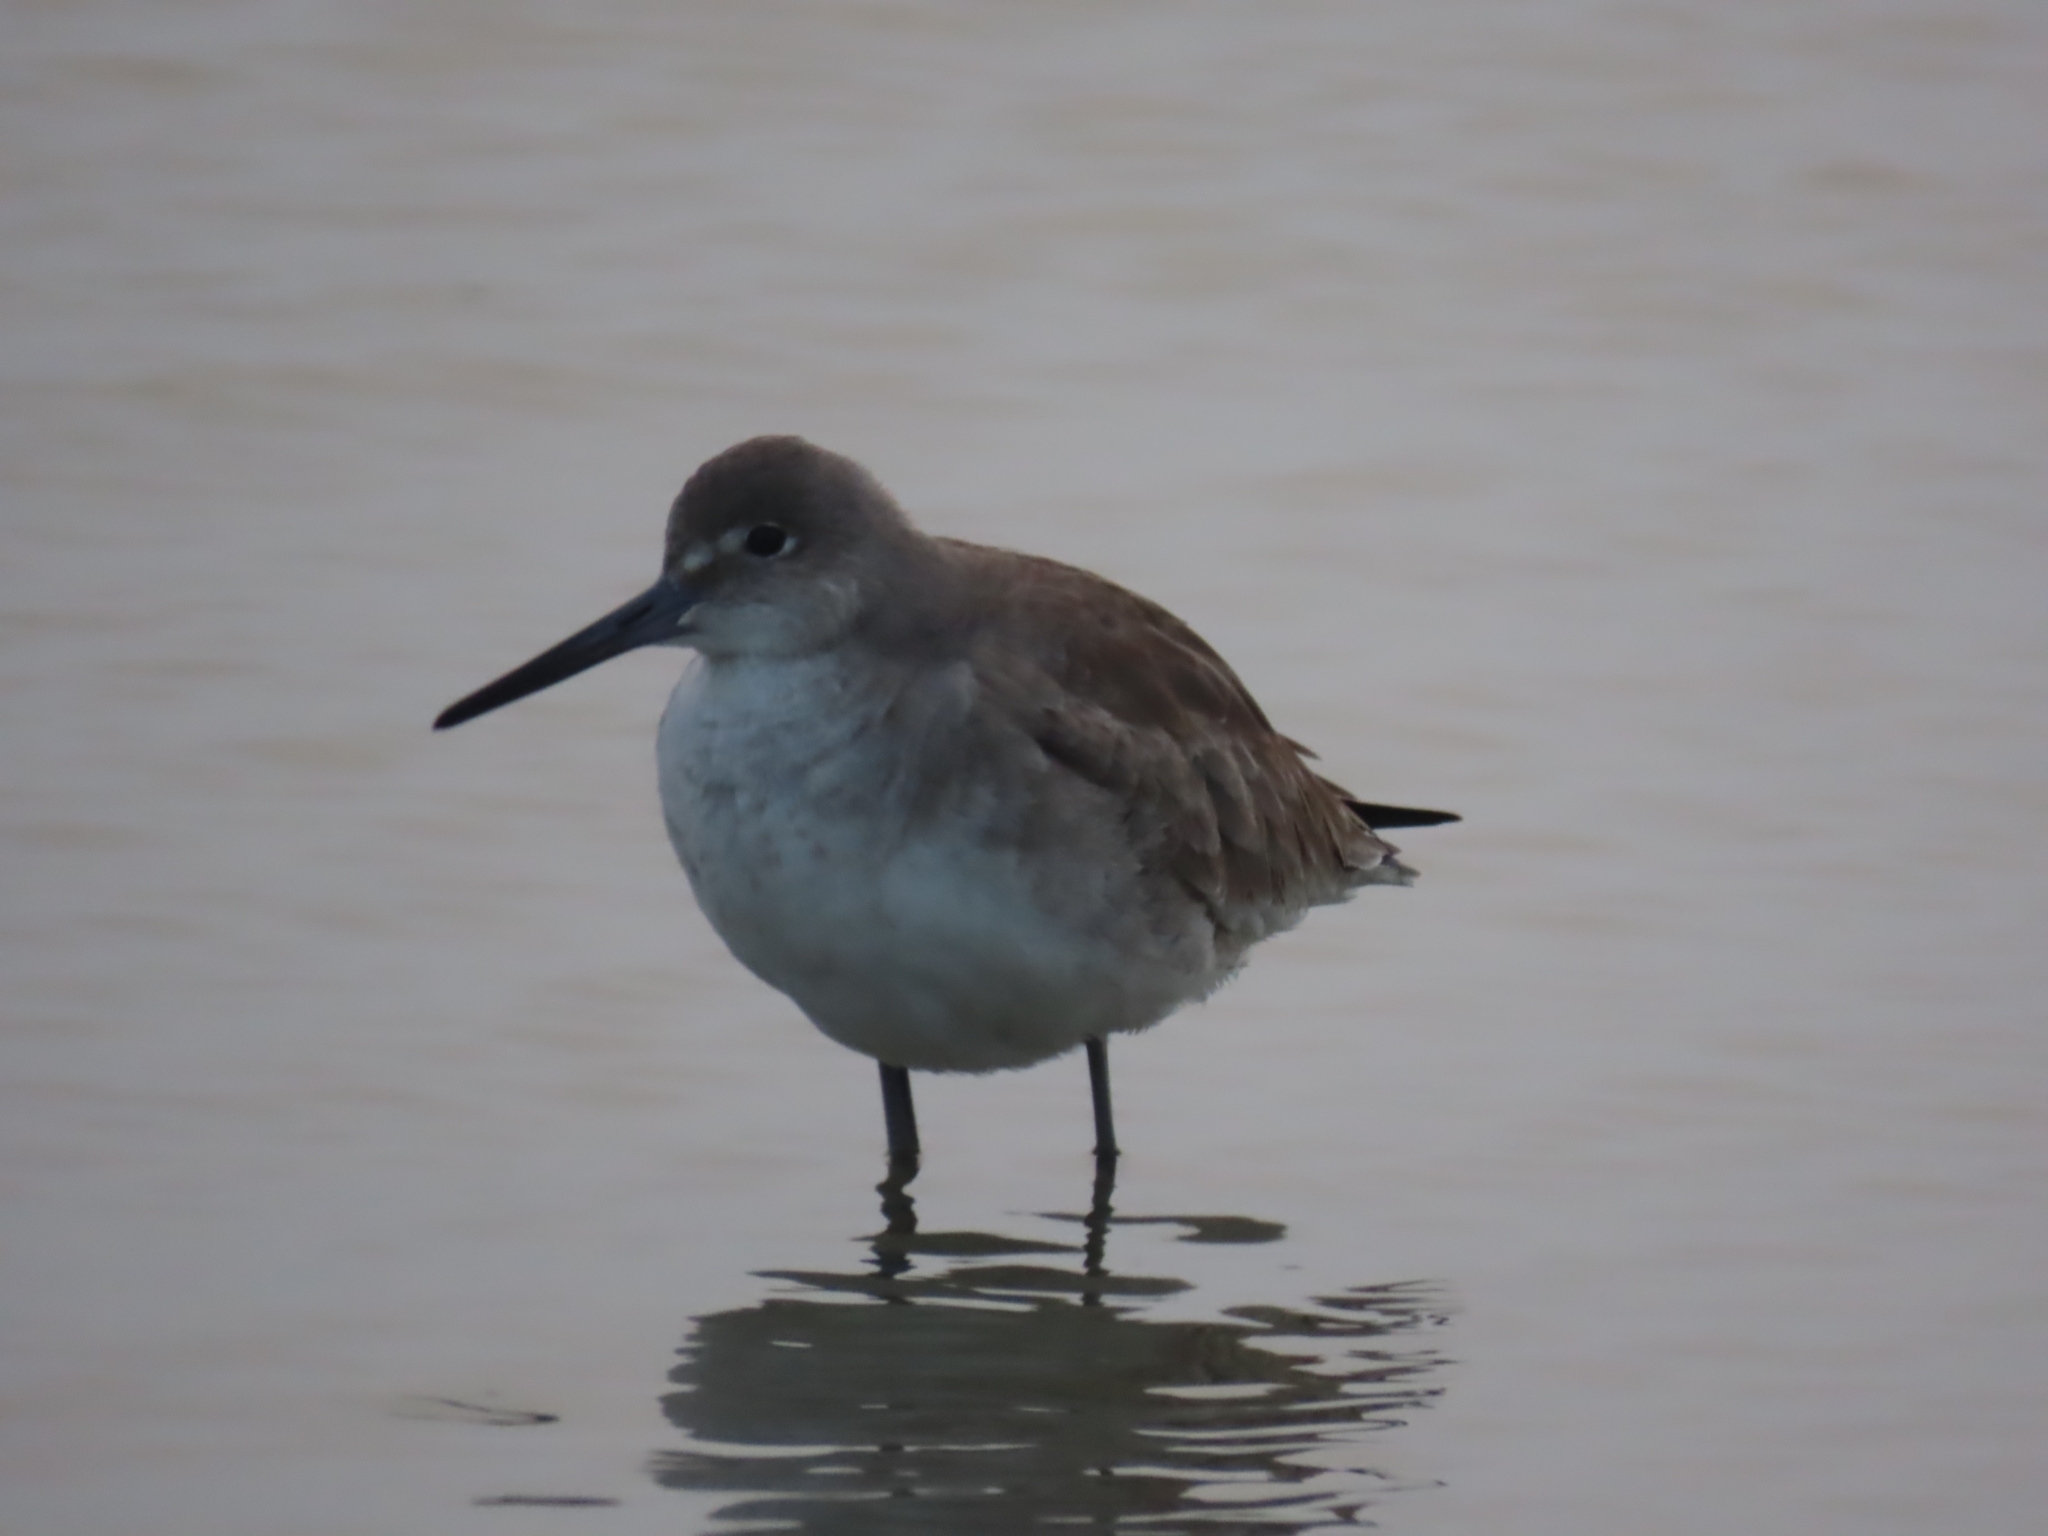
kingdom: Animalia
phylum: Chordata
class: Aves
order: Charadriiformes
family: Scolopacidae
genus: Tringa
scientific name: Tringa semipalmata
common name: Willet
